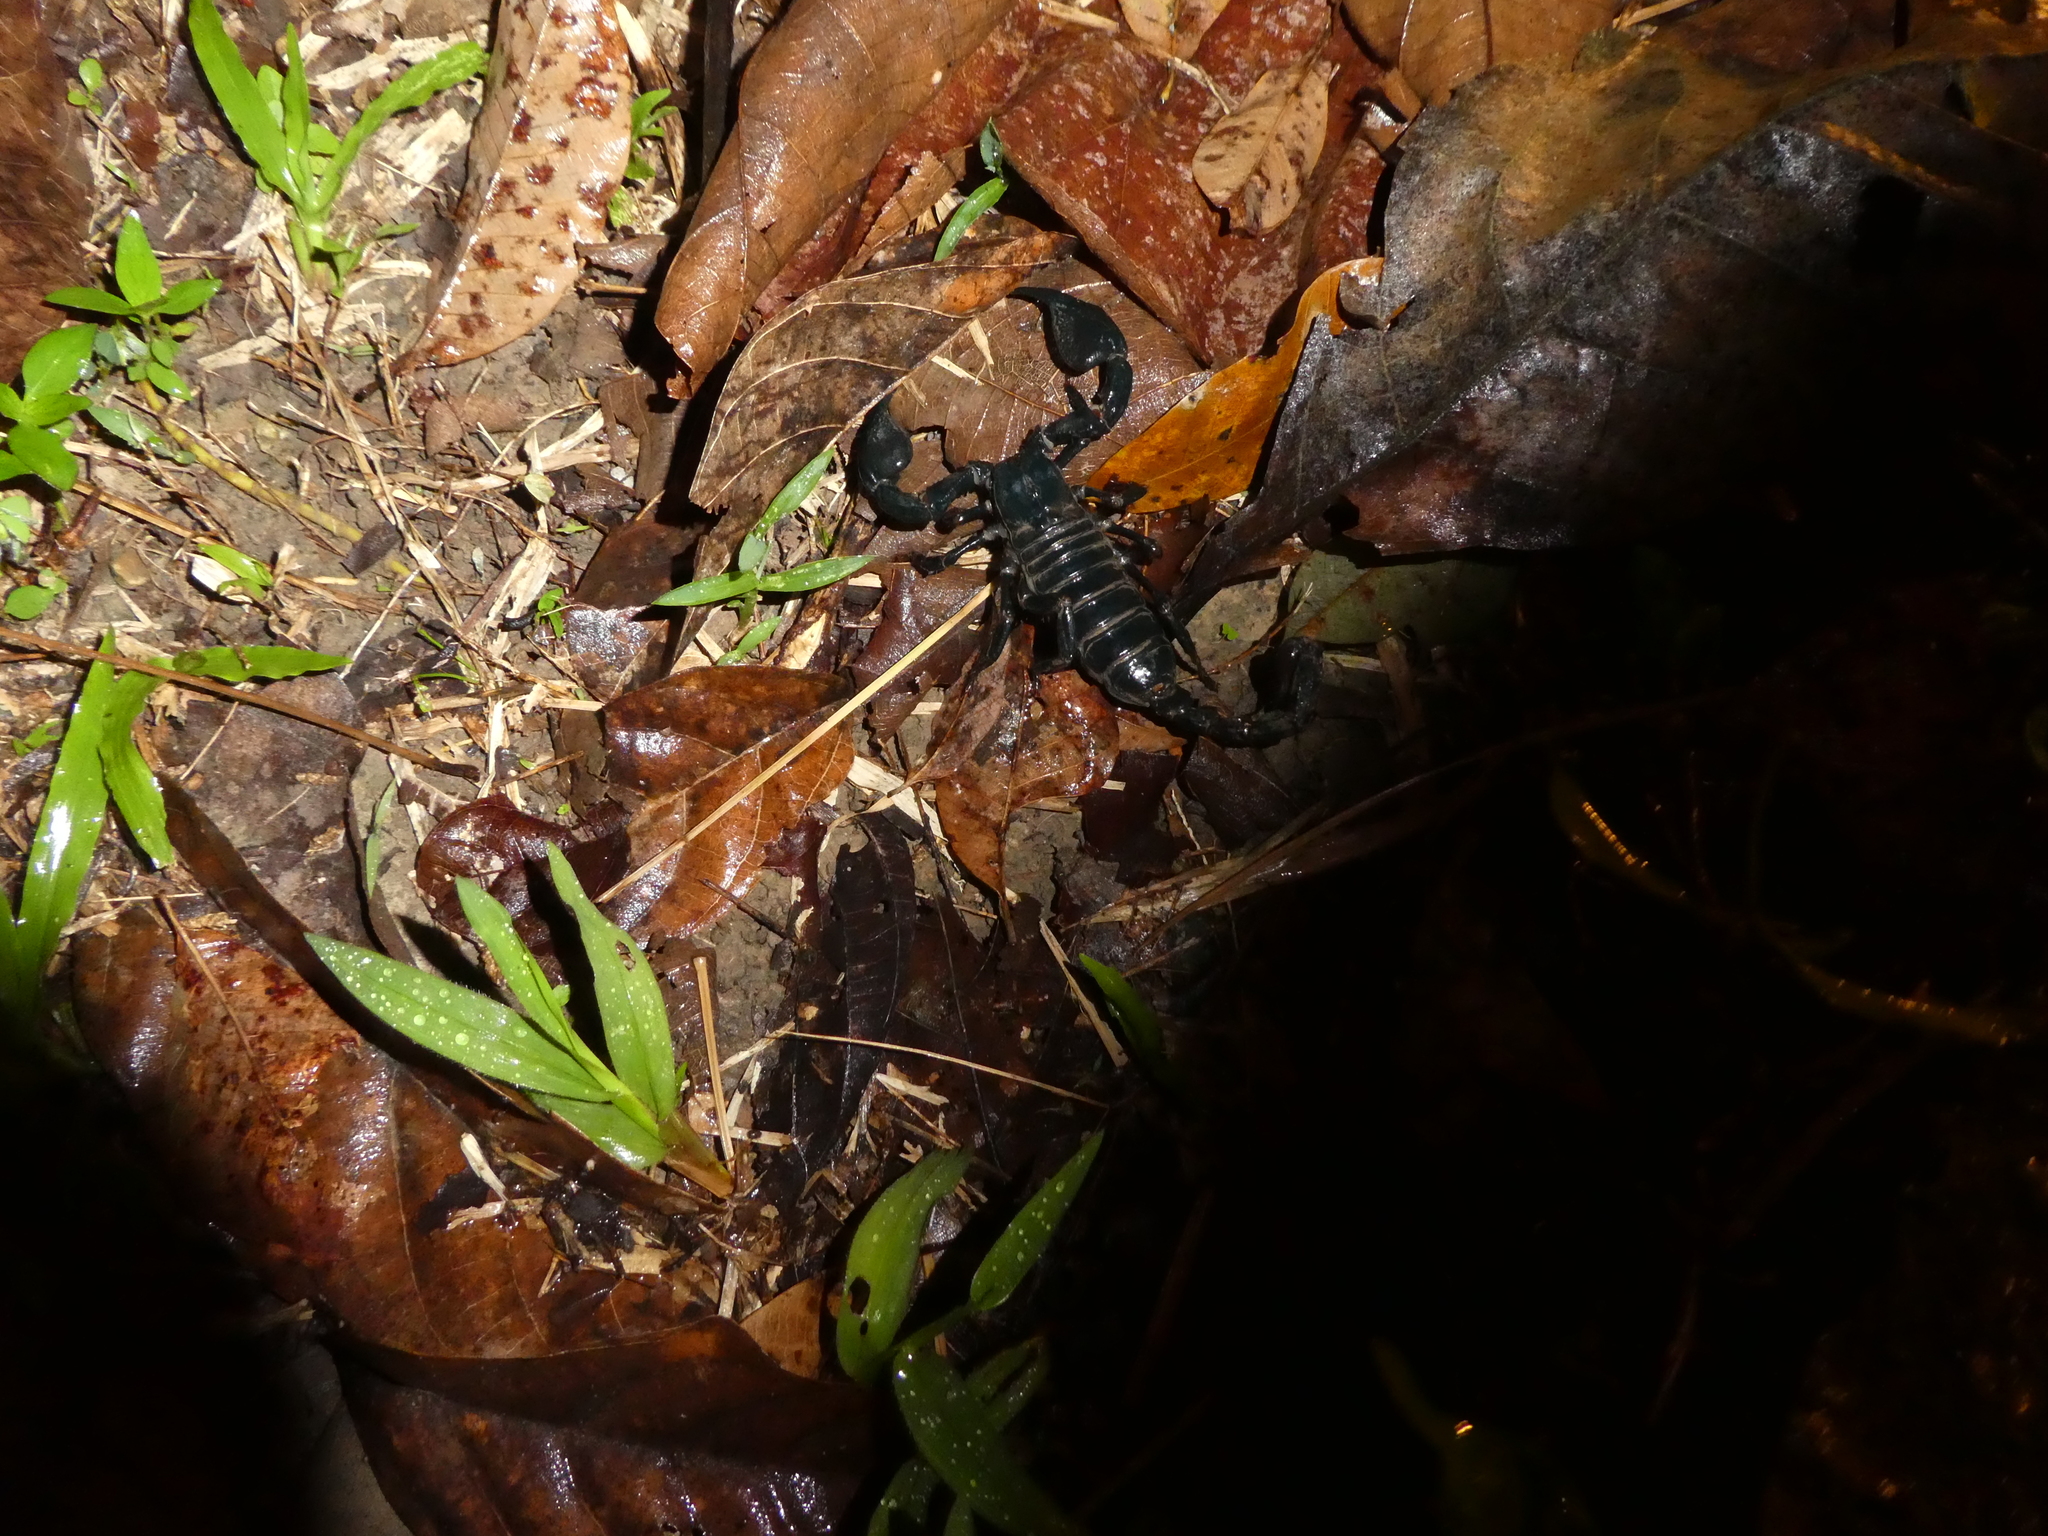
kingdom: Animalia
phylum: Arthropoda
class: Arachnida
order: Scorpiones
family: Scorpionidae
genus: Javanimetrus
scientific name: Javanimetrus cyaneus
